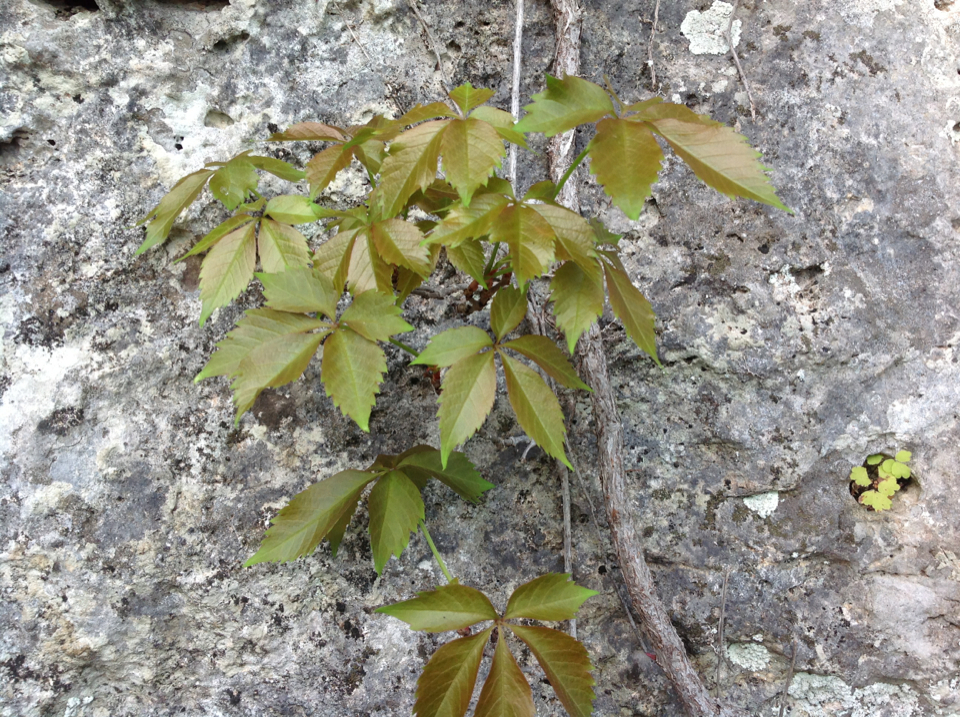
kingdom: Plantae
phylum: Tracheophyta
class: Magnoliopsida
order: Vitales
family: Vitaceae
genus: Parthenocissus
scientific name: Parthenocissus quinquefolia
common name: Virginia-creeper
